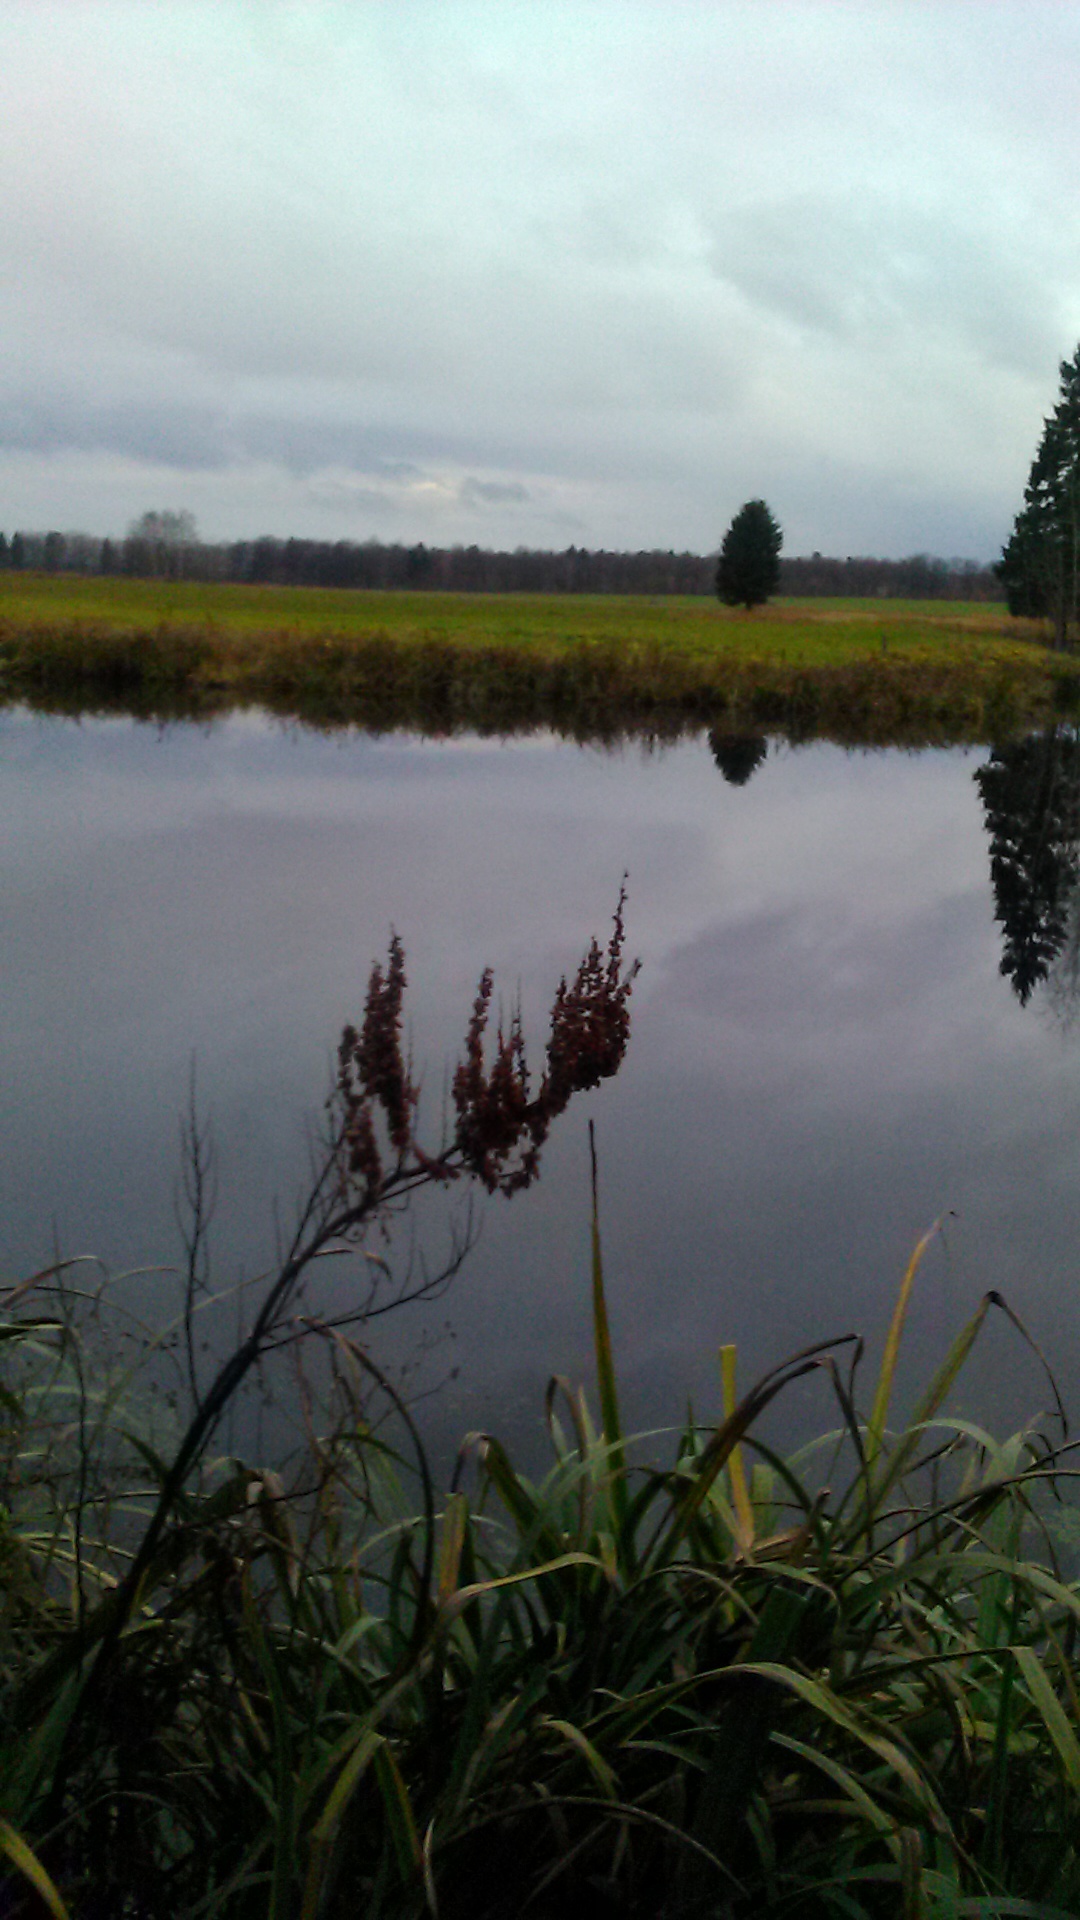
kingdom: Plantae
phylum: Tracheophyta
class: Magnoliopsida
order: Caryophyllales
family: Polygonaceae
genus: Rumex
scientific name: Rumex aquaticus
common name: Scottish dock
